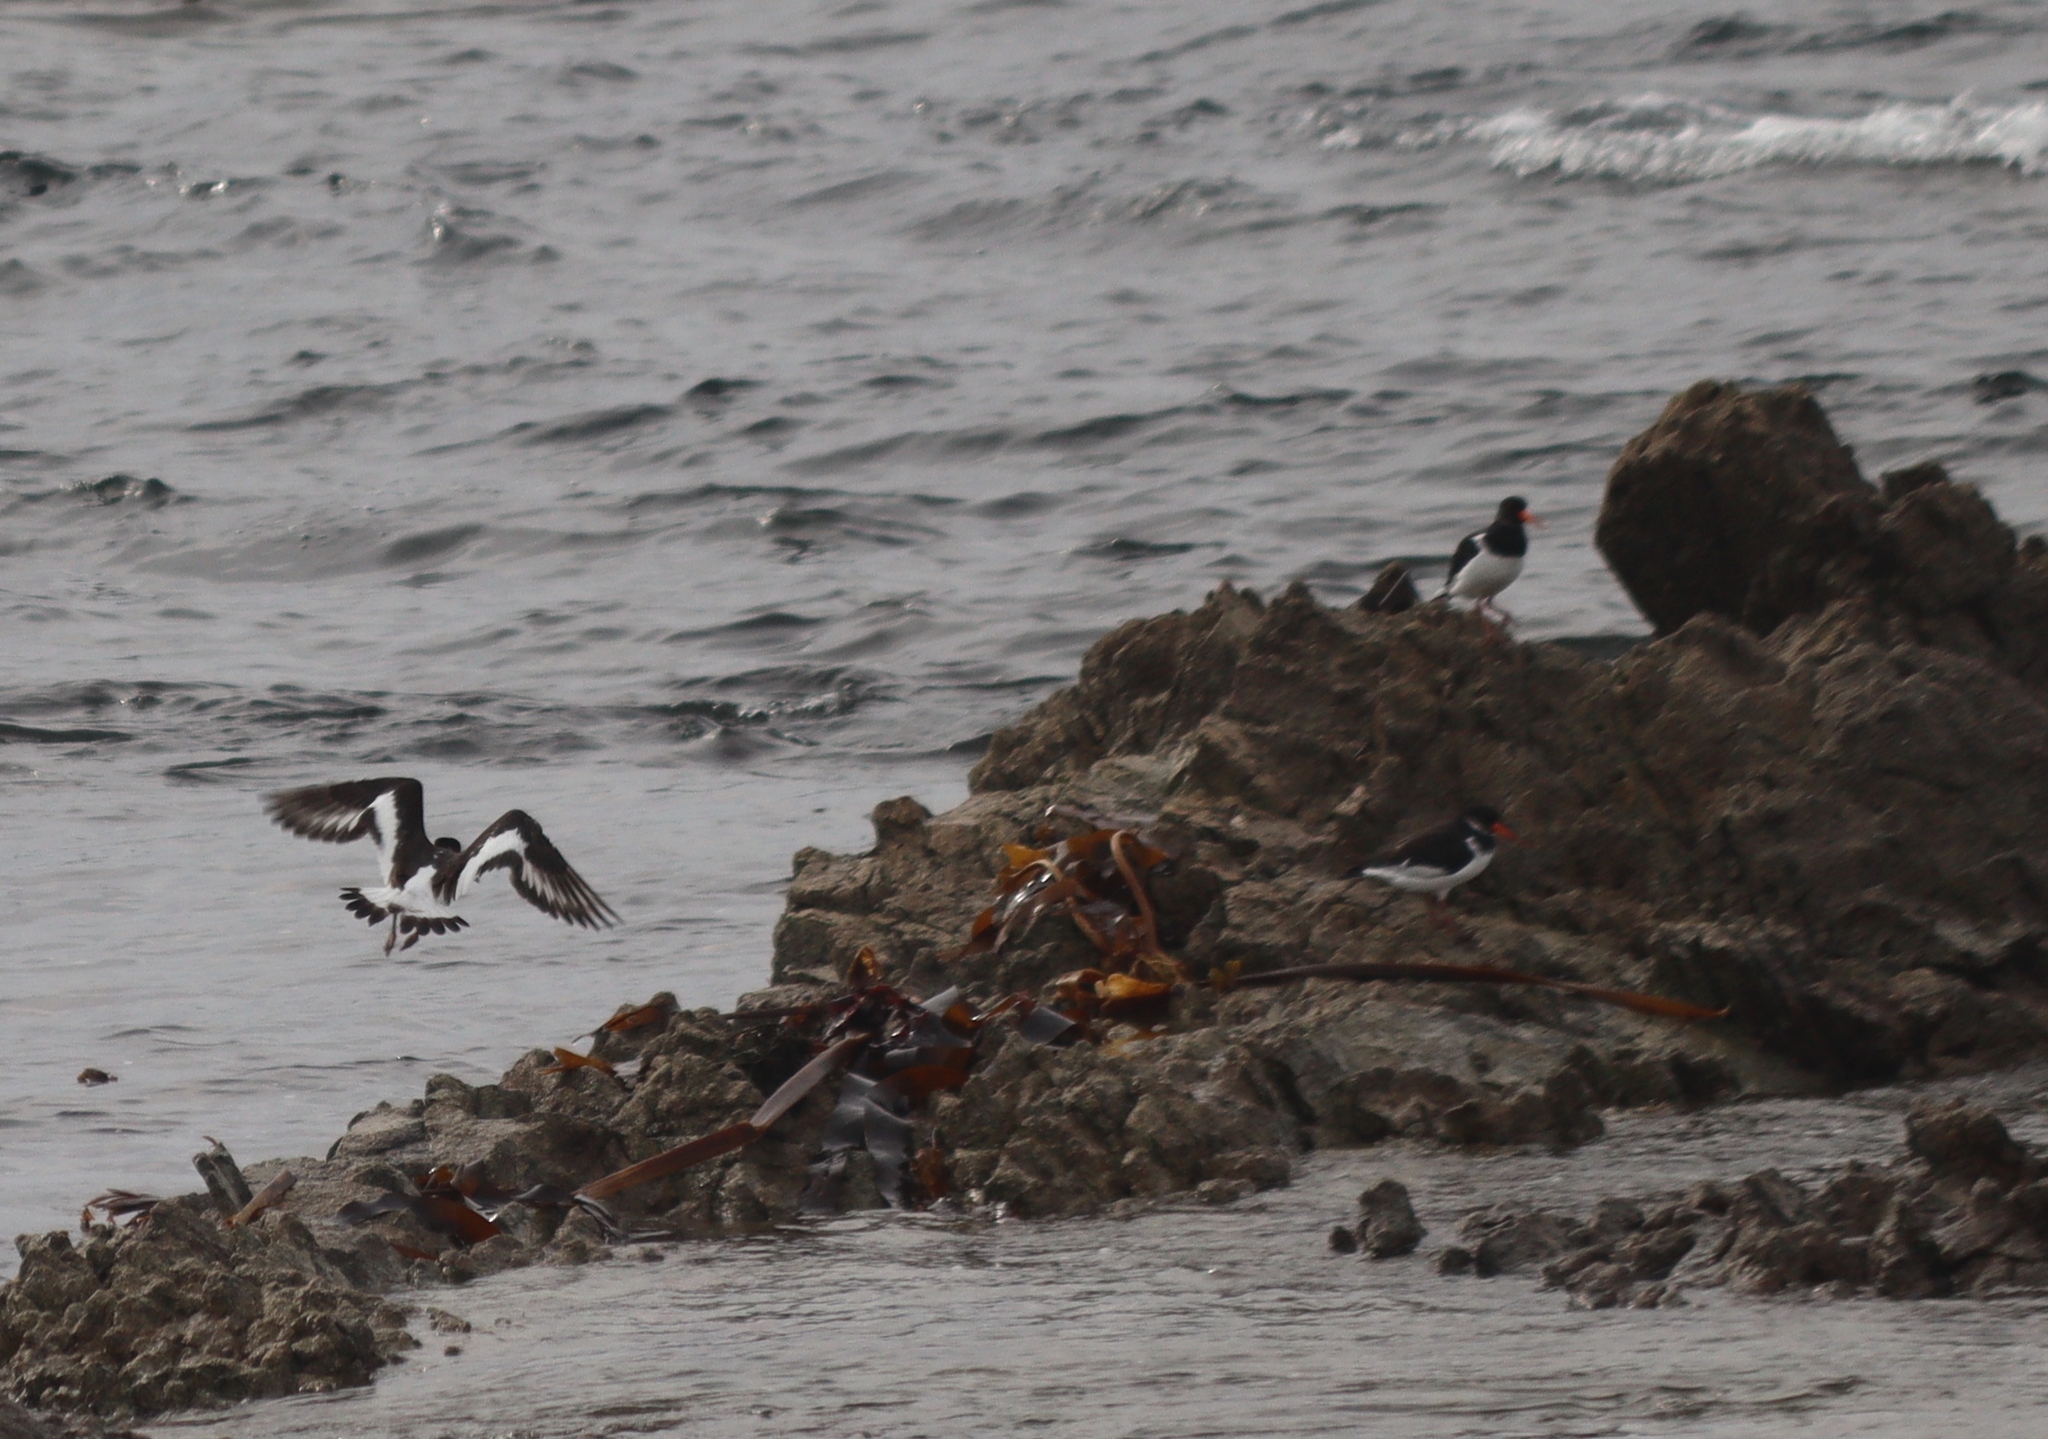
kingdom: Animalia
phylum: Chordata
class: Aves
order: Charadriiformes
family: Haematopodidae
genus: Haematopus
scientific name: Haematopus ostralegus
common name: Eurasian oystercatcher
